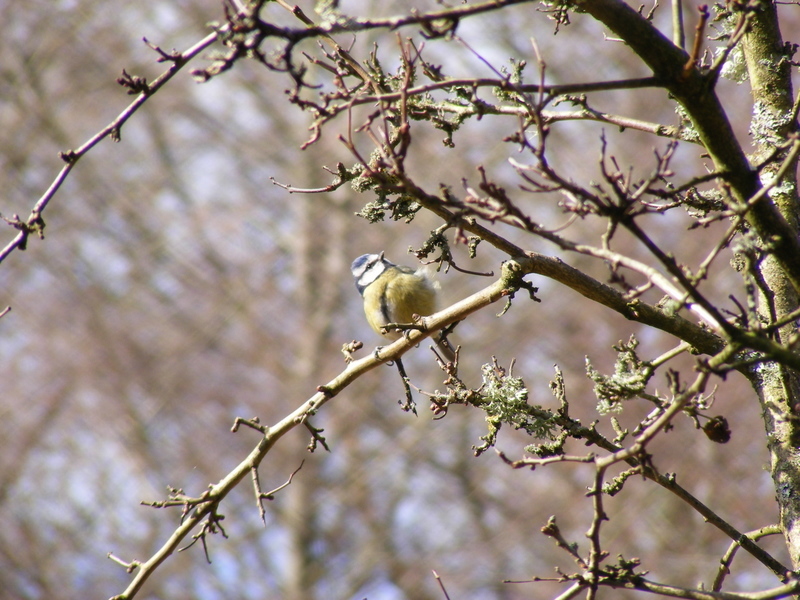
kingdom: Animalia
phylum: Chordata
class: Aves
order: Passeriformes
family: Paridae
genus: Cyanistes
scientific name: Cyanistes caeruleus
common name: Eurasian blue tit
